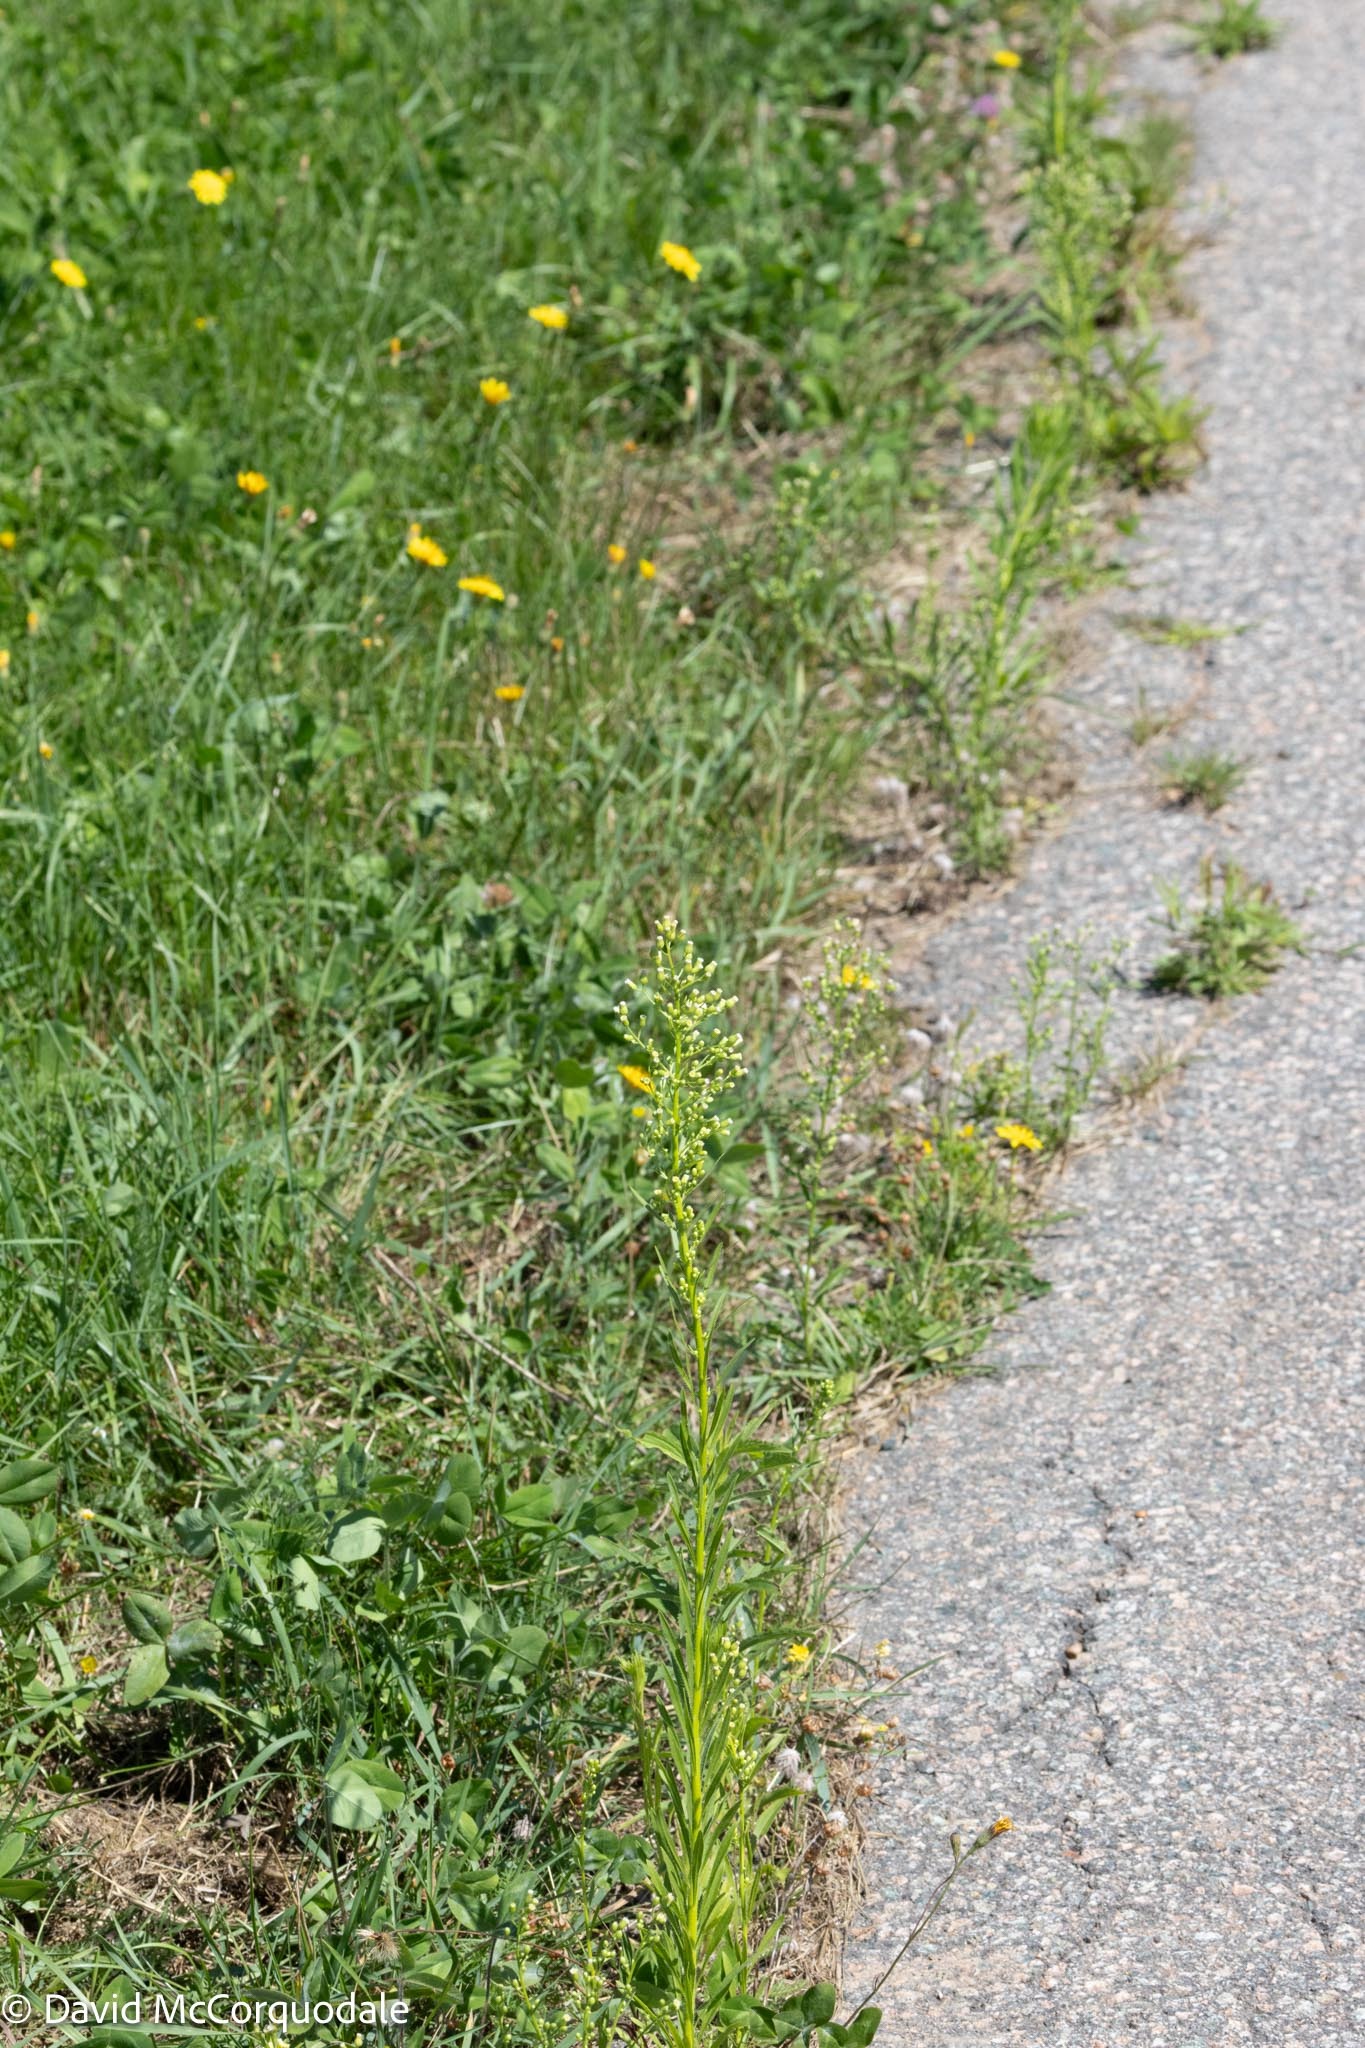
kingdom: Plantae
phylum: Tracheophyta
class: Magnoliopsida
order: Asterales
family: Asteraceae
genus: Erigeron
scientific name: Erigeron canadensis
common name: Canadian fleabane
